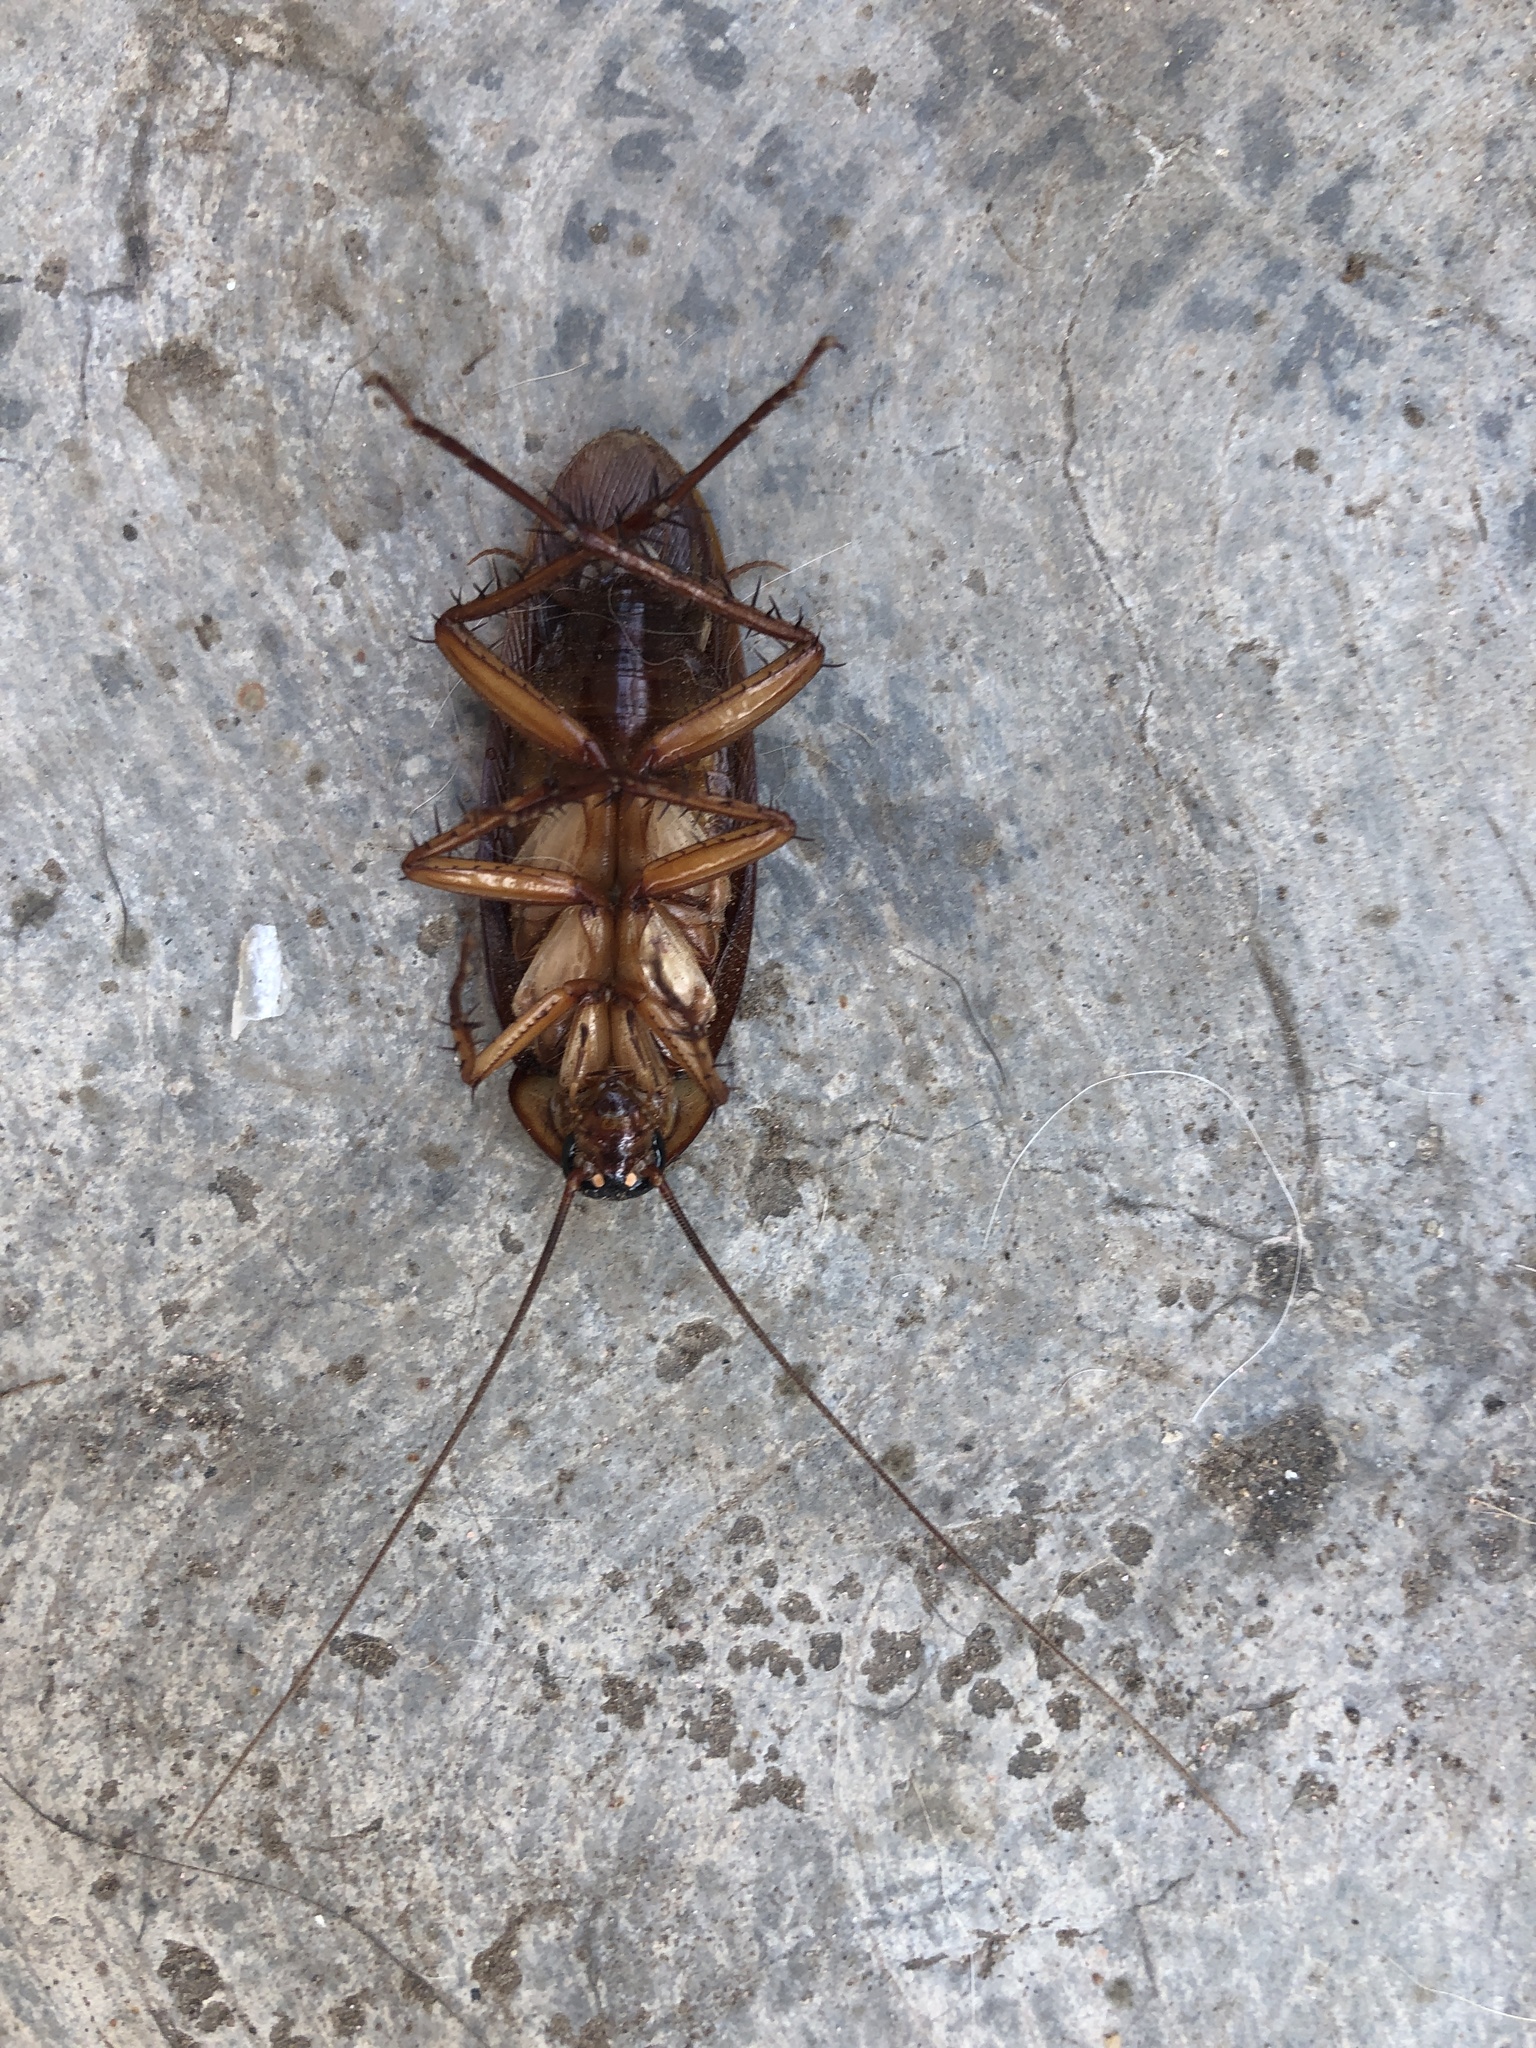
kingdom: Animalia
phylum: Arthropoda
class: Insecta
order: Blattodea
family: Blattidae
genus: Periplaneta
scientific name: Periplaneta americana
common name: American cockroach
